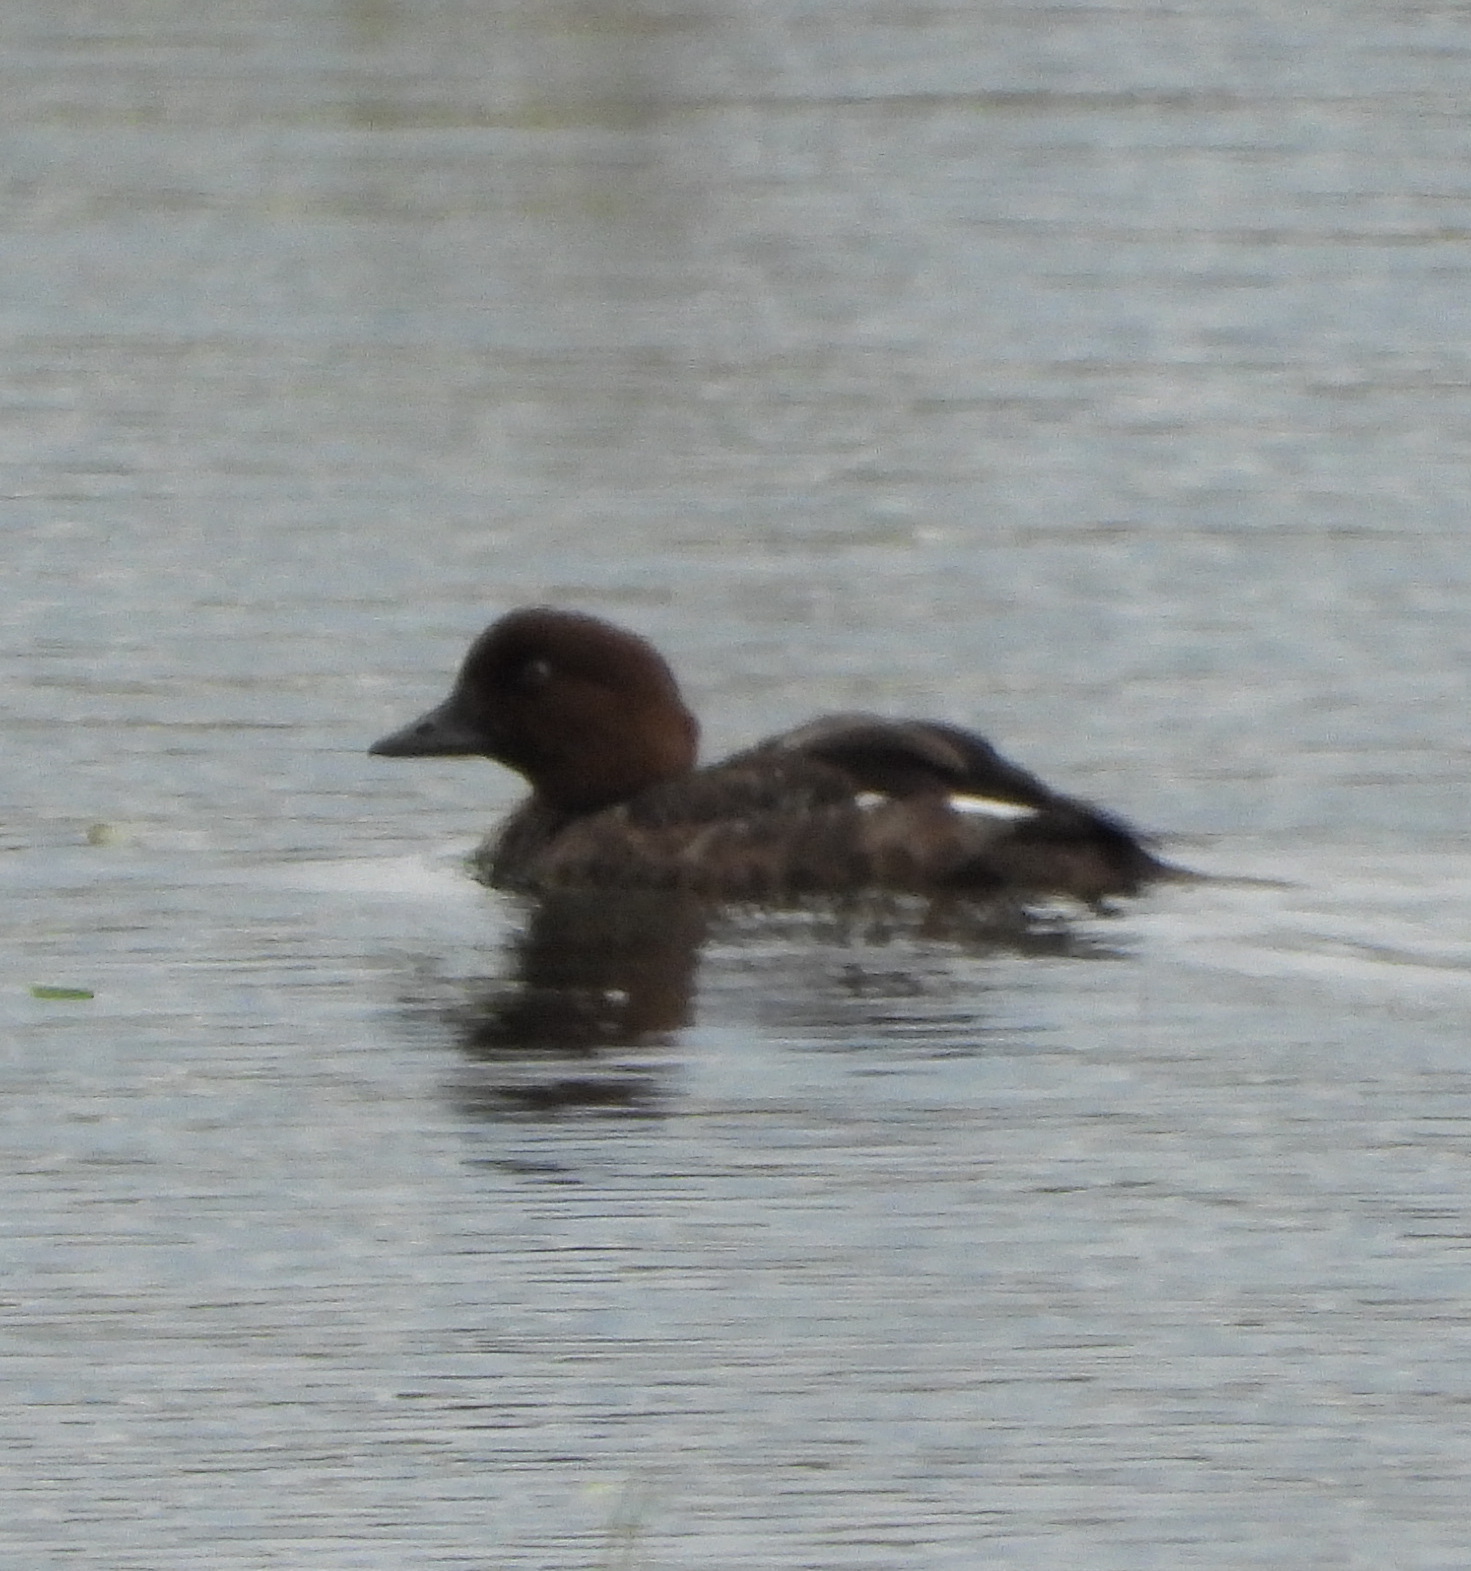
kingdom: Animalia
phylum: Chordata
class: Aves
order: Anseriformes
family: Anatidae
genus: Bucephala
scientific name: Bucephala clangula
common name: Common goldeneye
